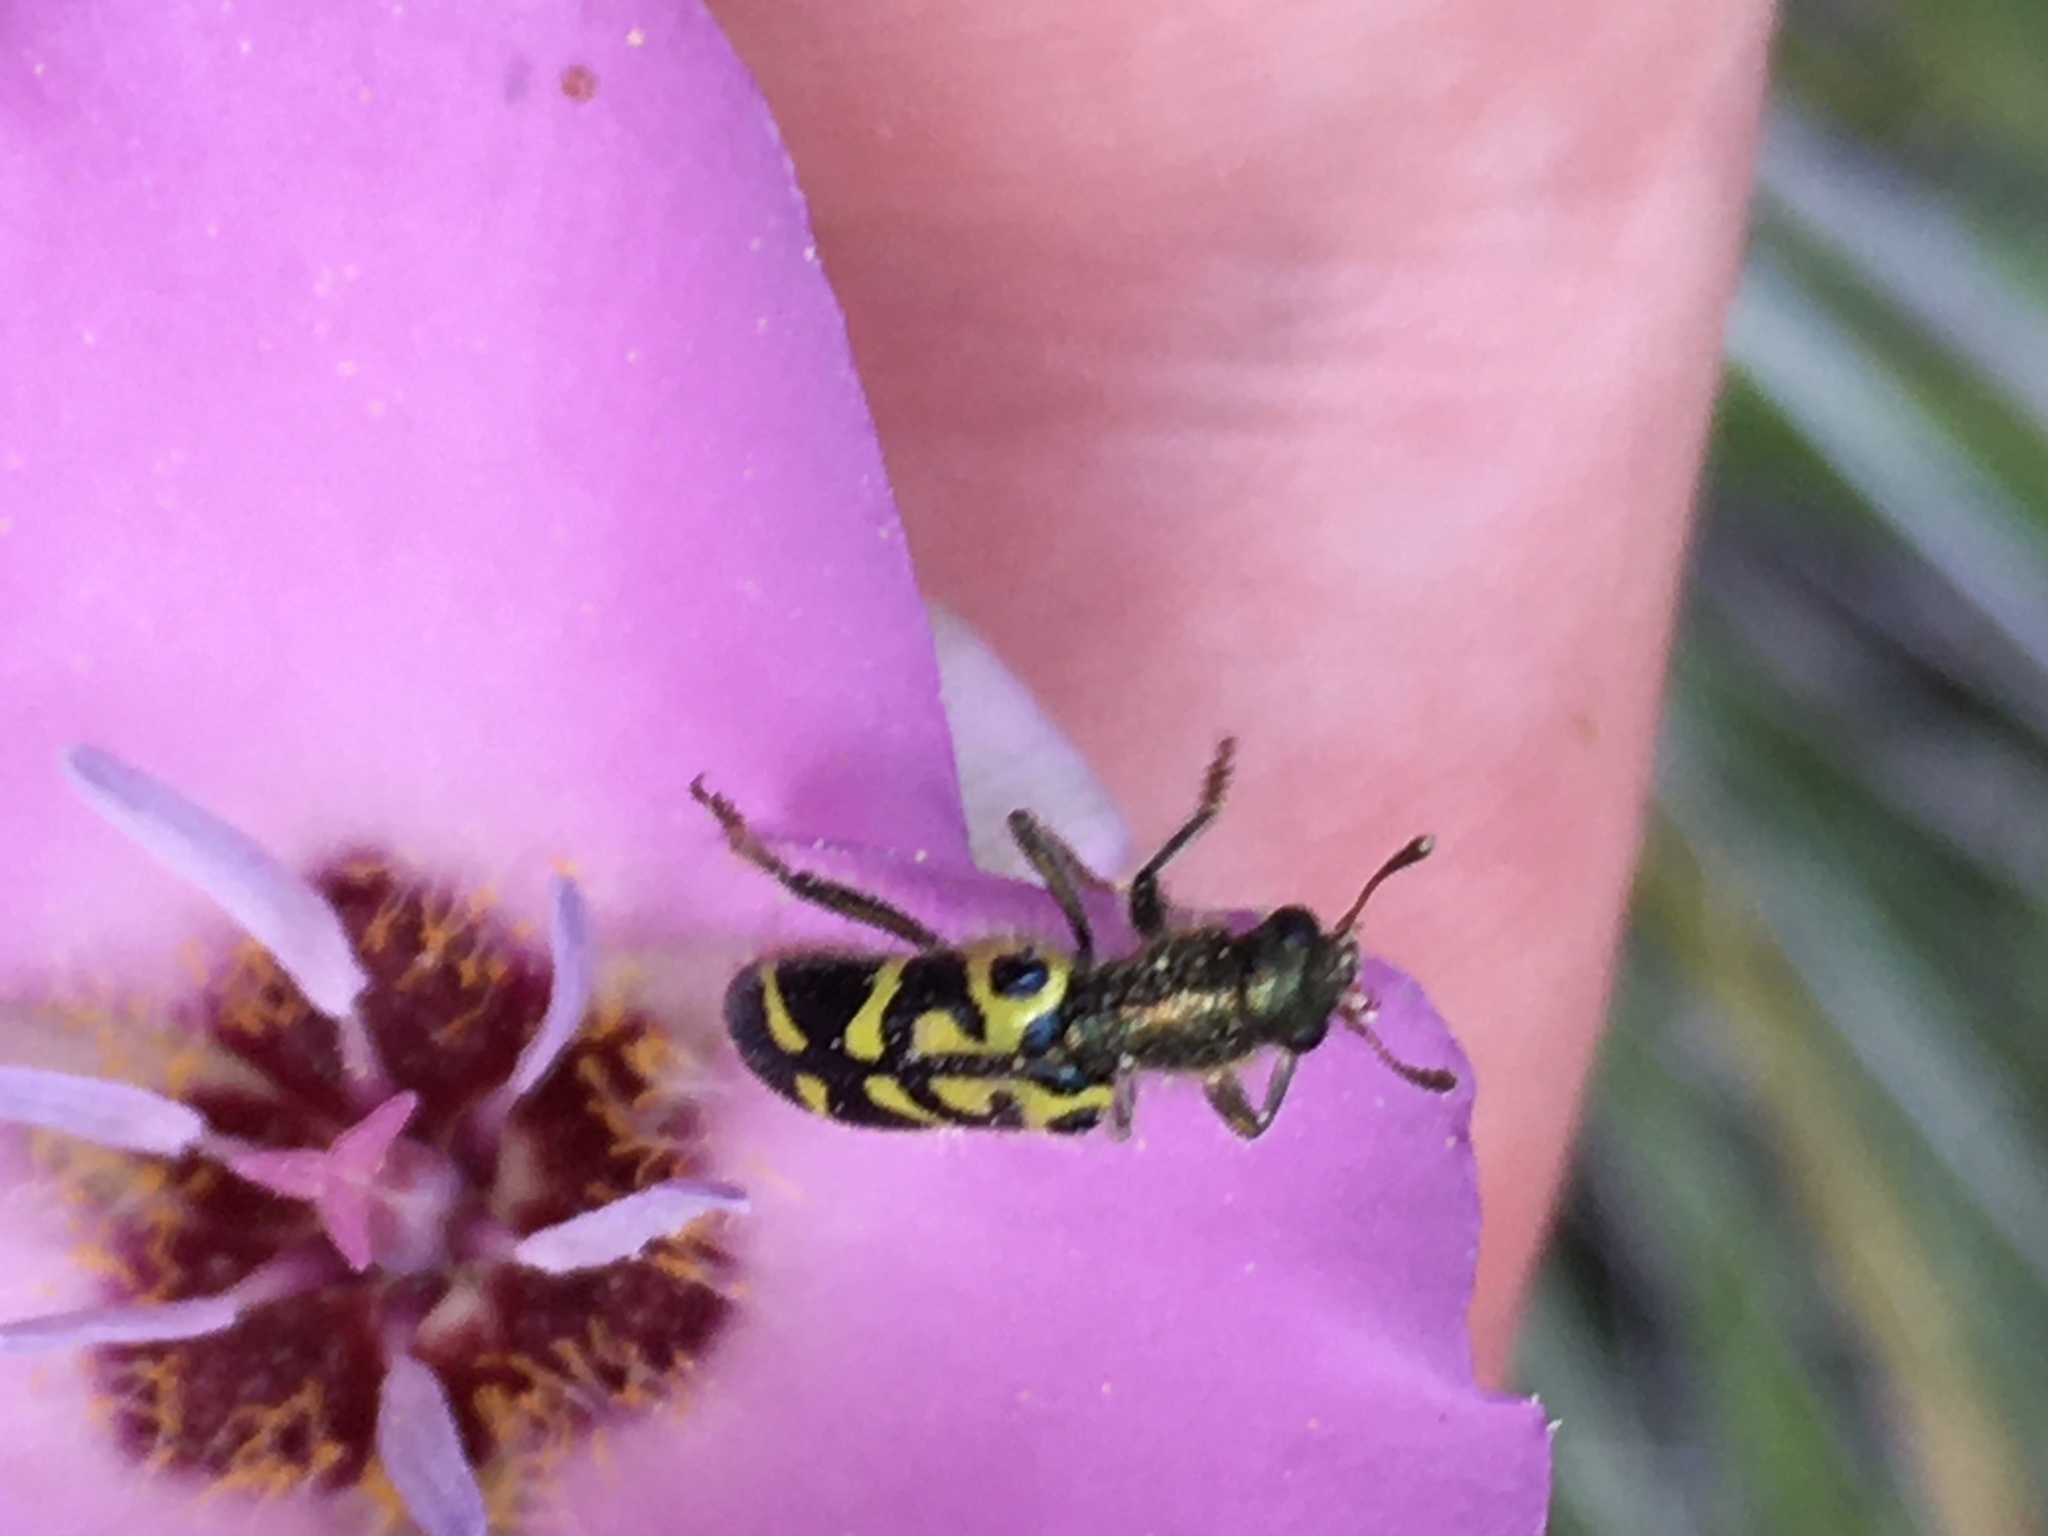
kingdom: Animalia
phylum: Arthropoda
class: Insecta
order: Coleoptera
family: Cleridae
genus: Trichodes
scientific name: Trichodes ornatus
